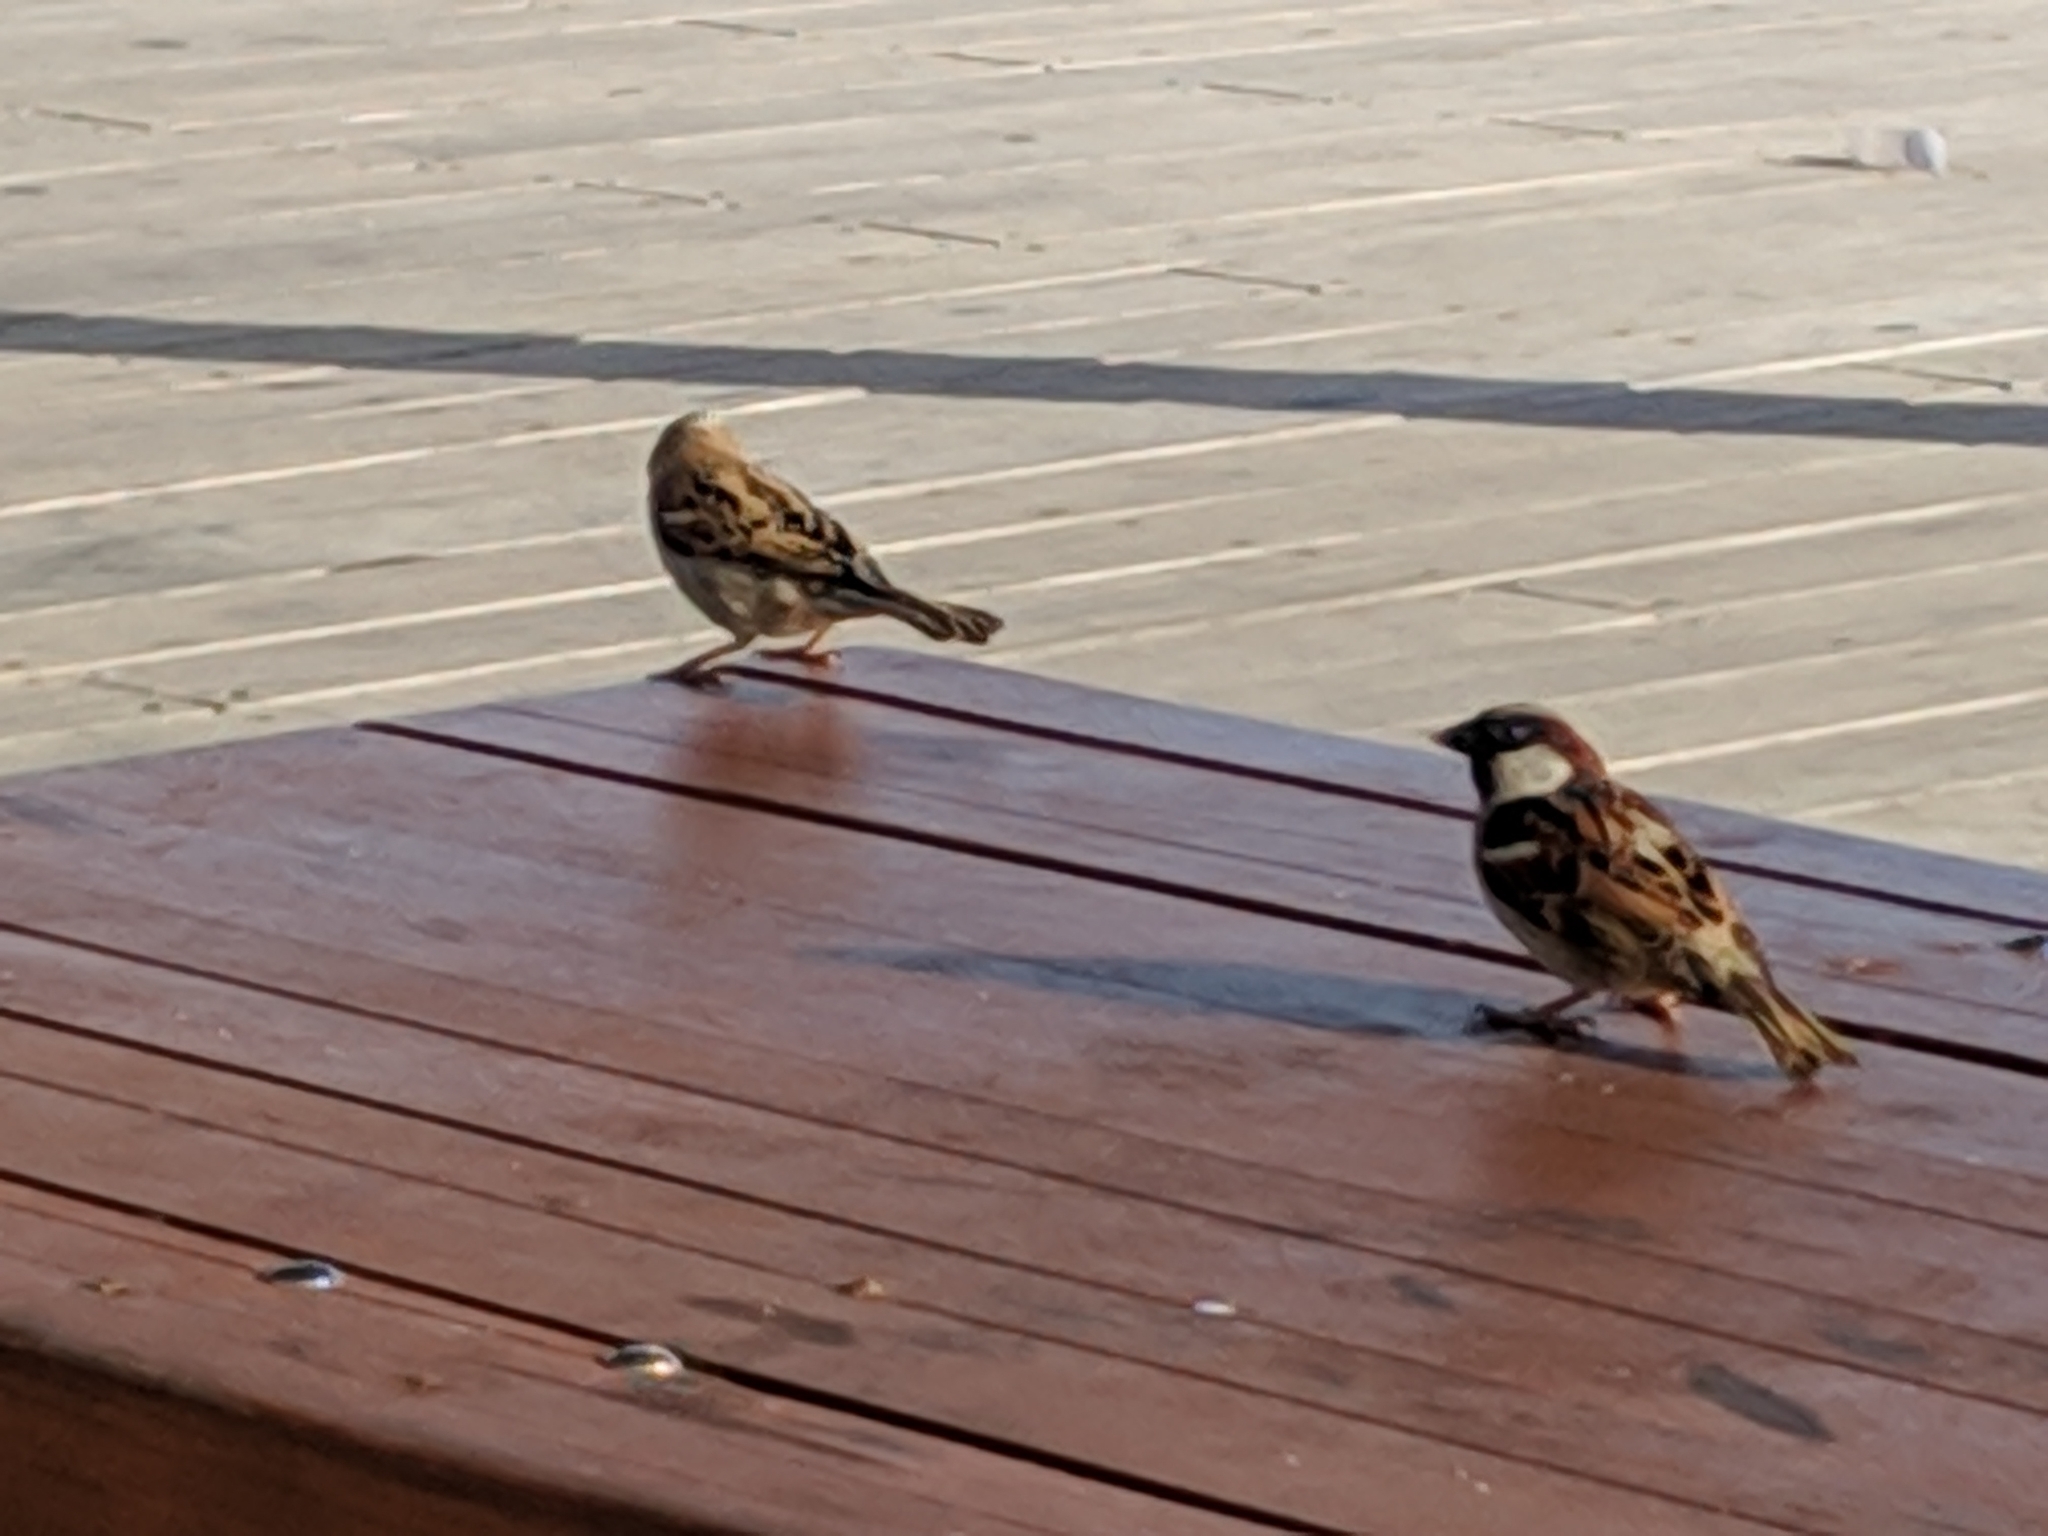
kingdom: Animalia
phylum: Chordata
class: Aves
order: Passeriformes
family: Passeridae
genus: Passer
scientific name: Passer domesticus
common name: House sparrow
